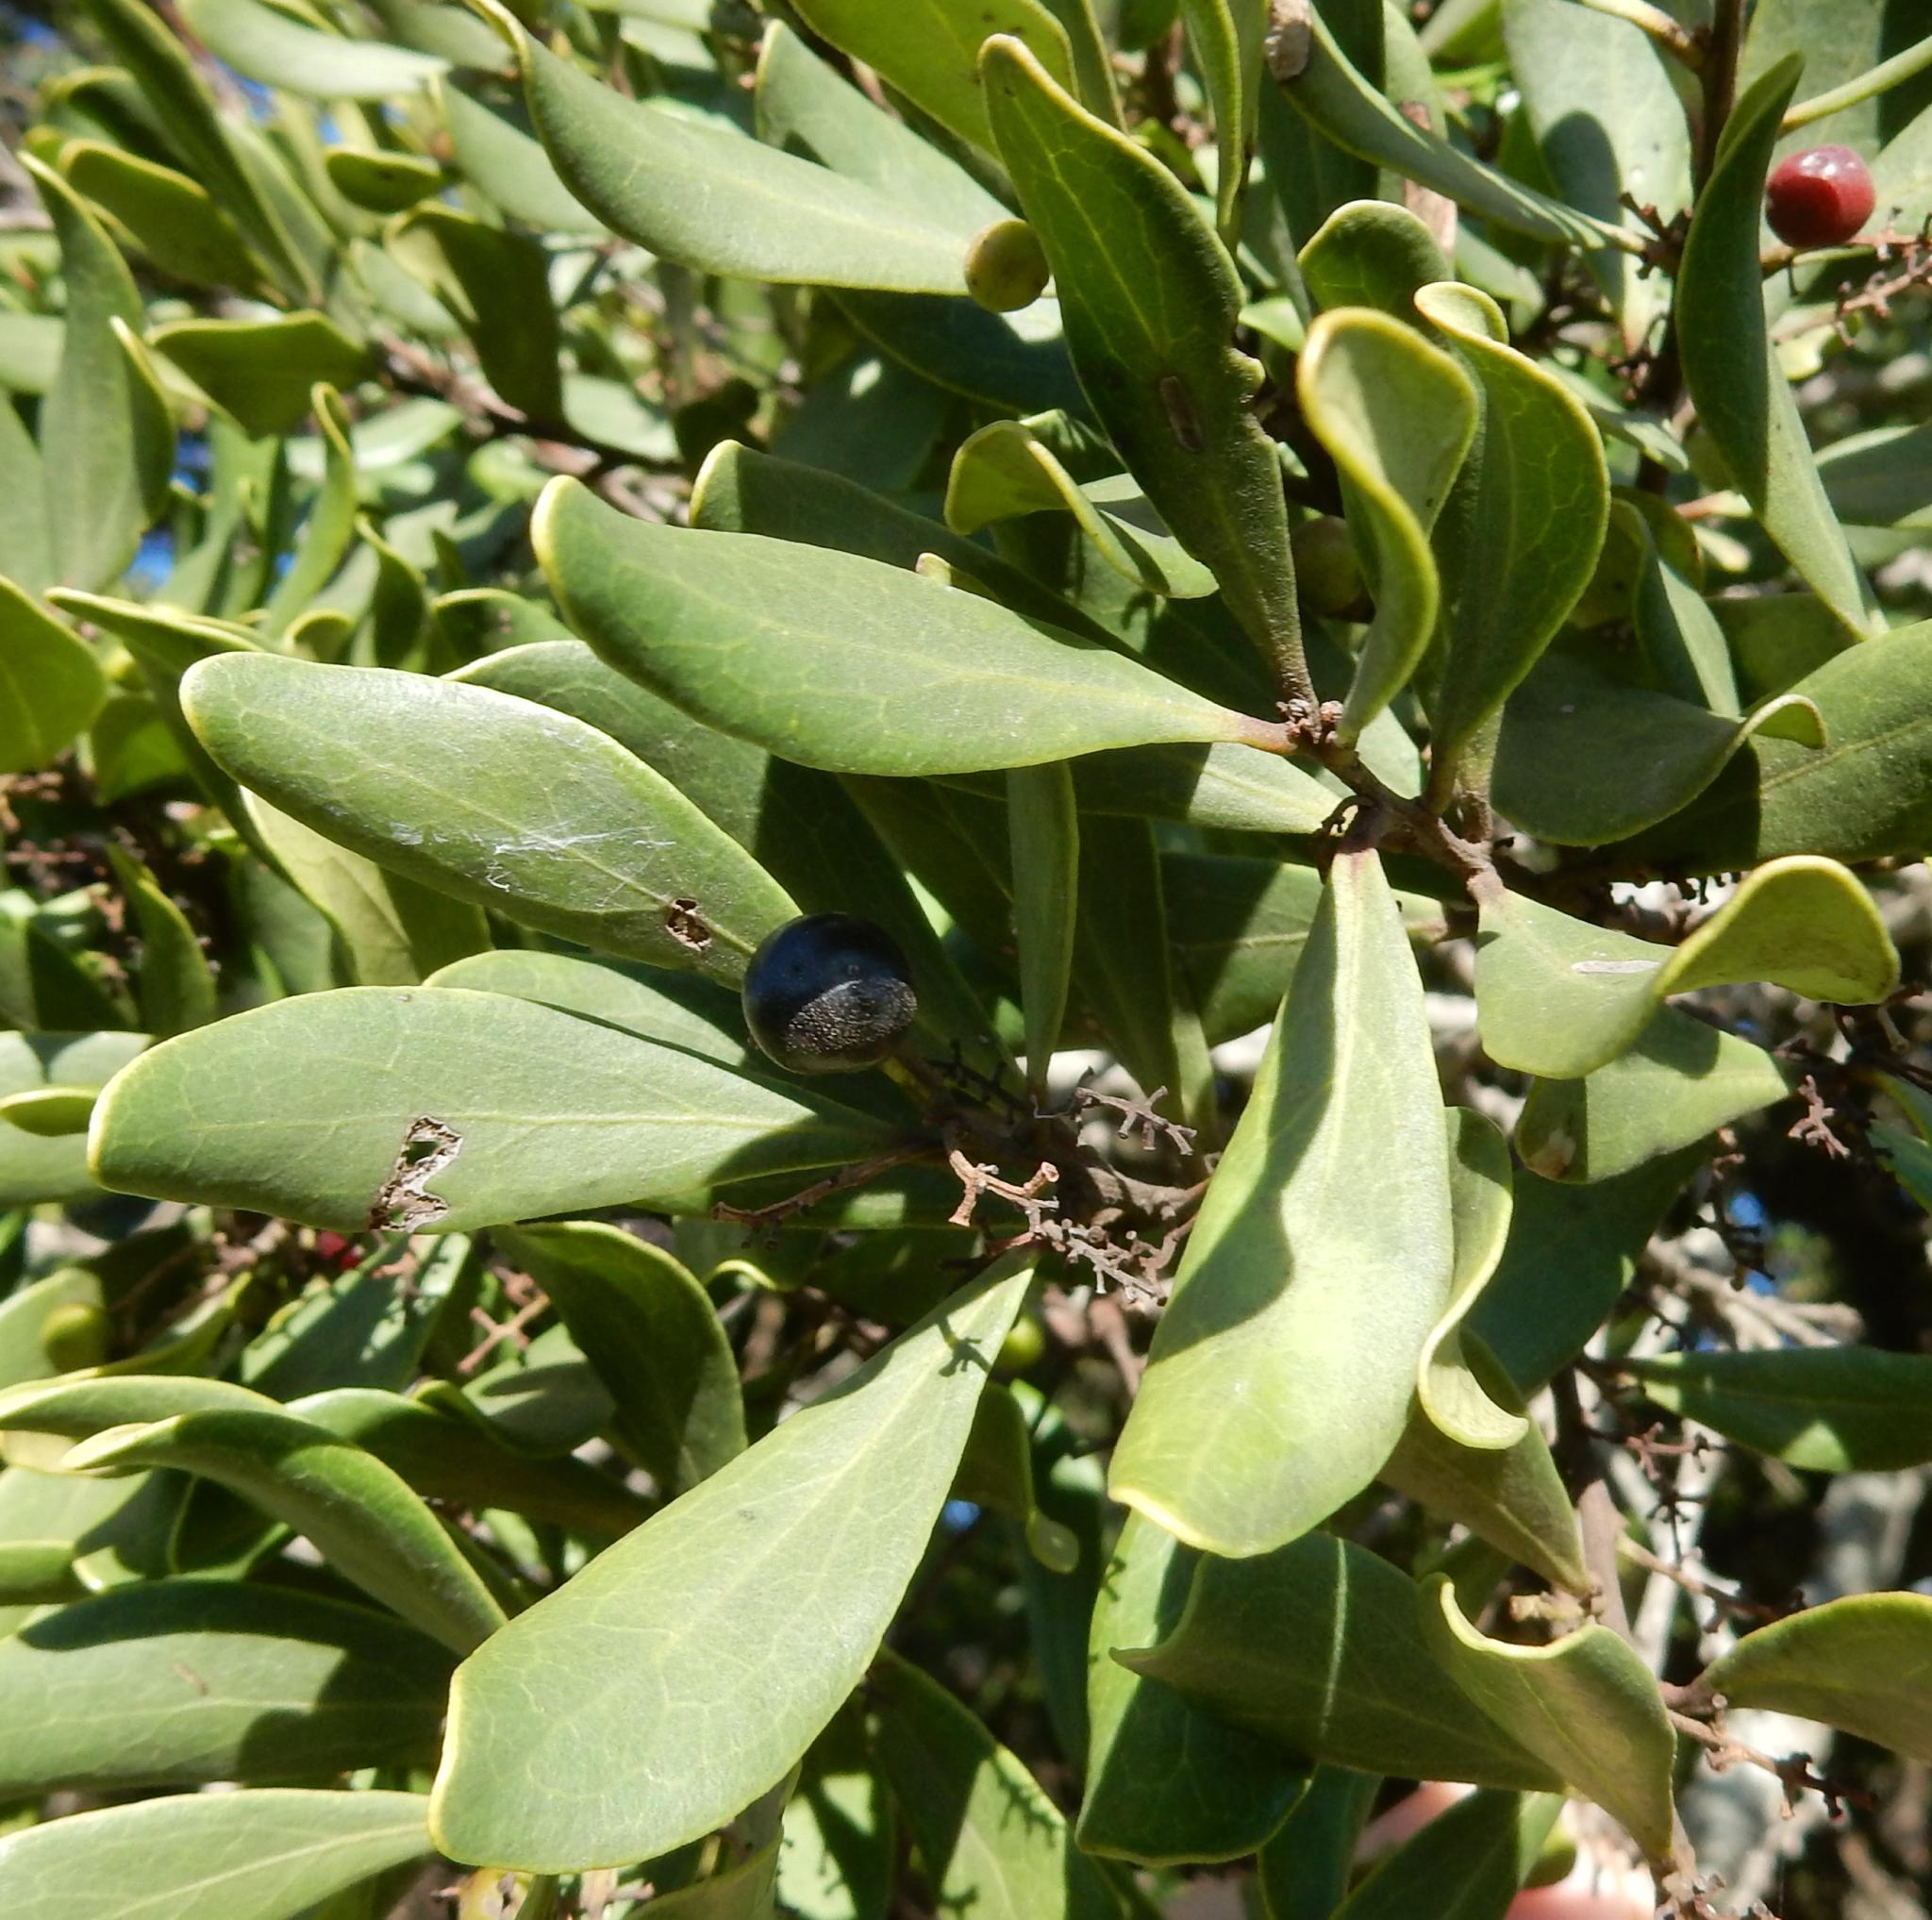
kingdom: Plantae
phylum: Tracheophyta
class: Magnoliopsida
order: Ericales
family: Ebenaceae
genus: Euclea
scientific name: Euclea natalensis
